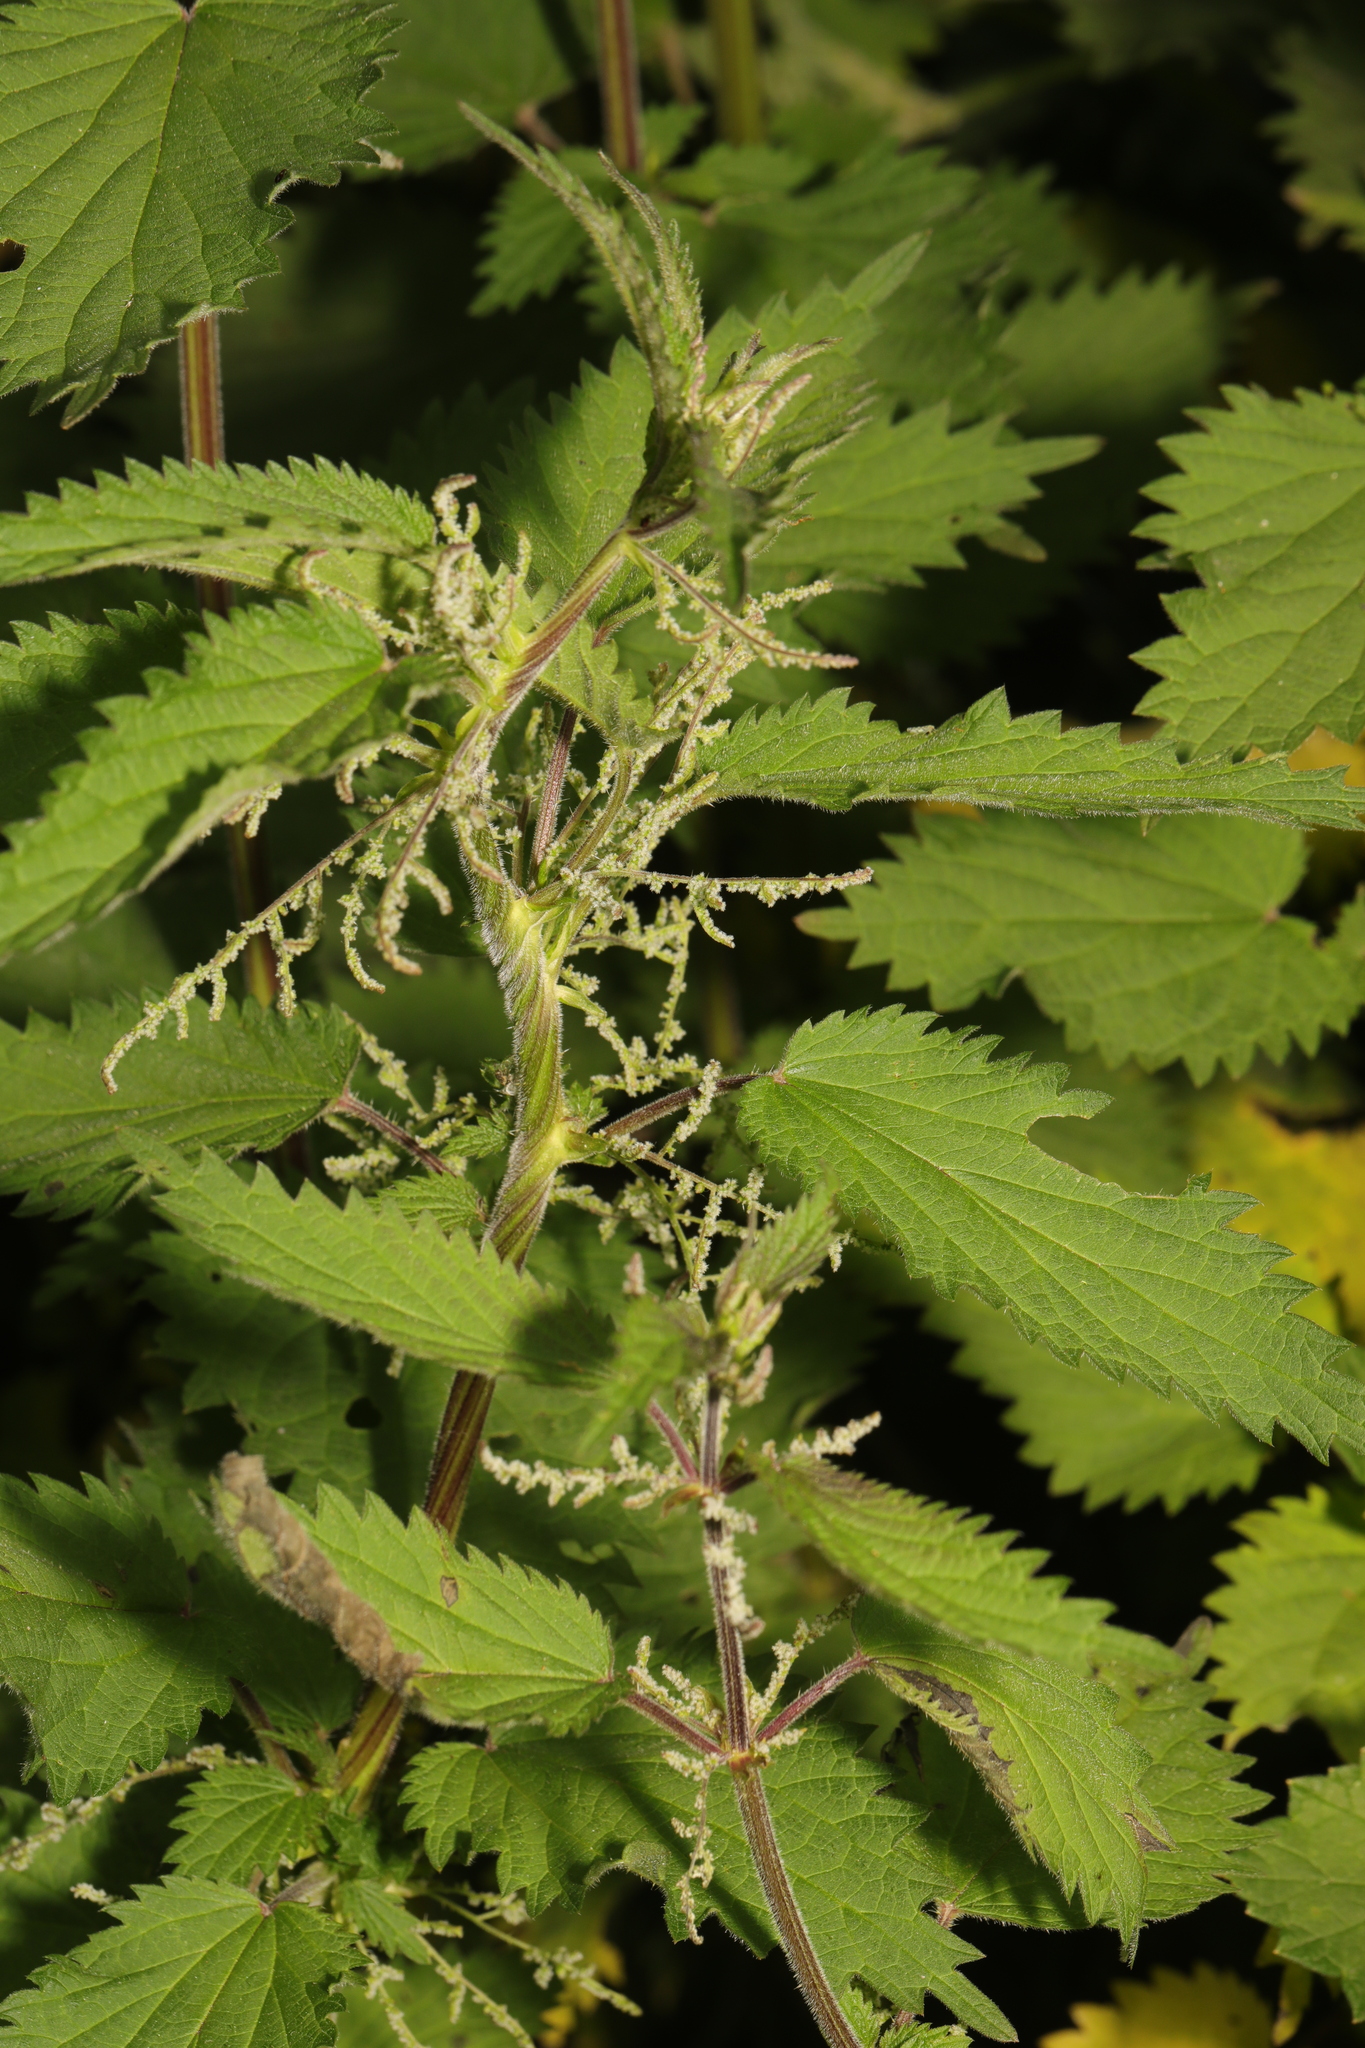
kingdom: Plantae
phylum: Tracheophyta
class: Magnoliopsida
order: Rosales
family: Urticaceae
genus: Urtica
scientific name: Urtica dioica
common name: Common nettle
